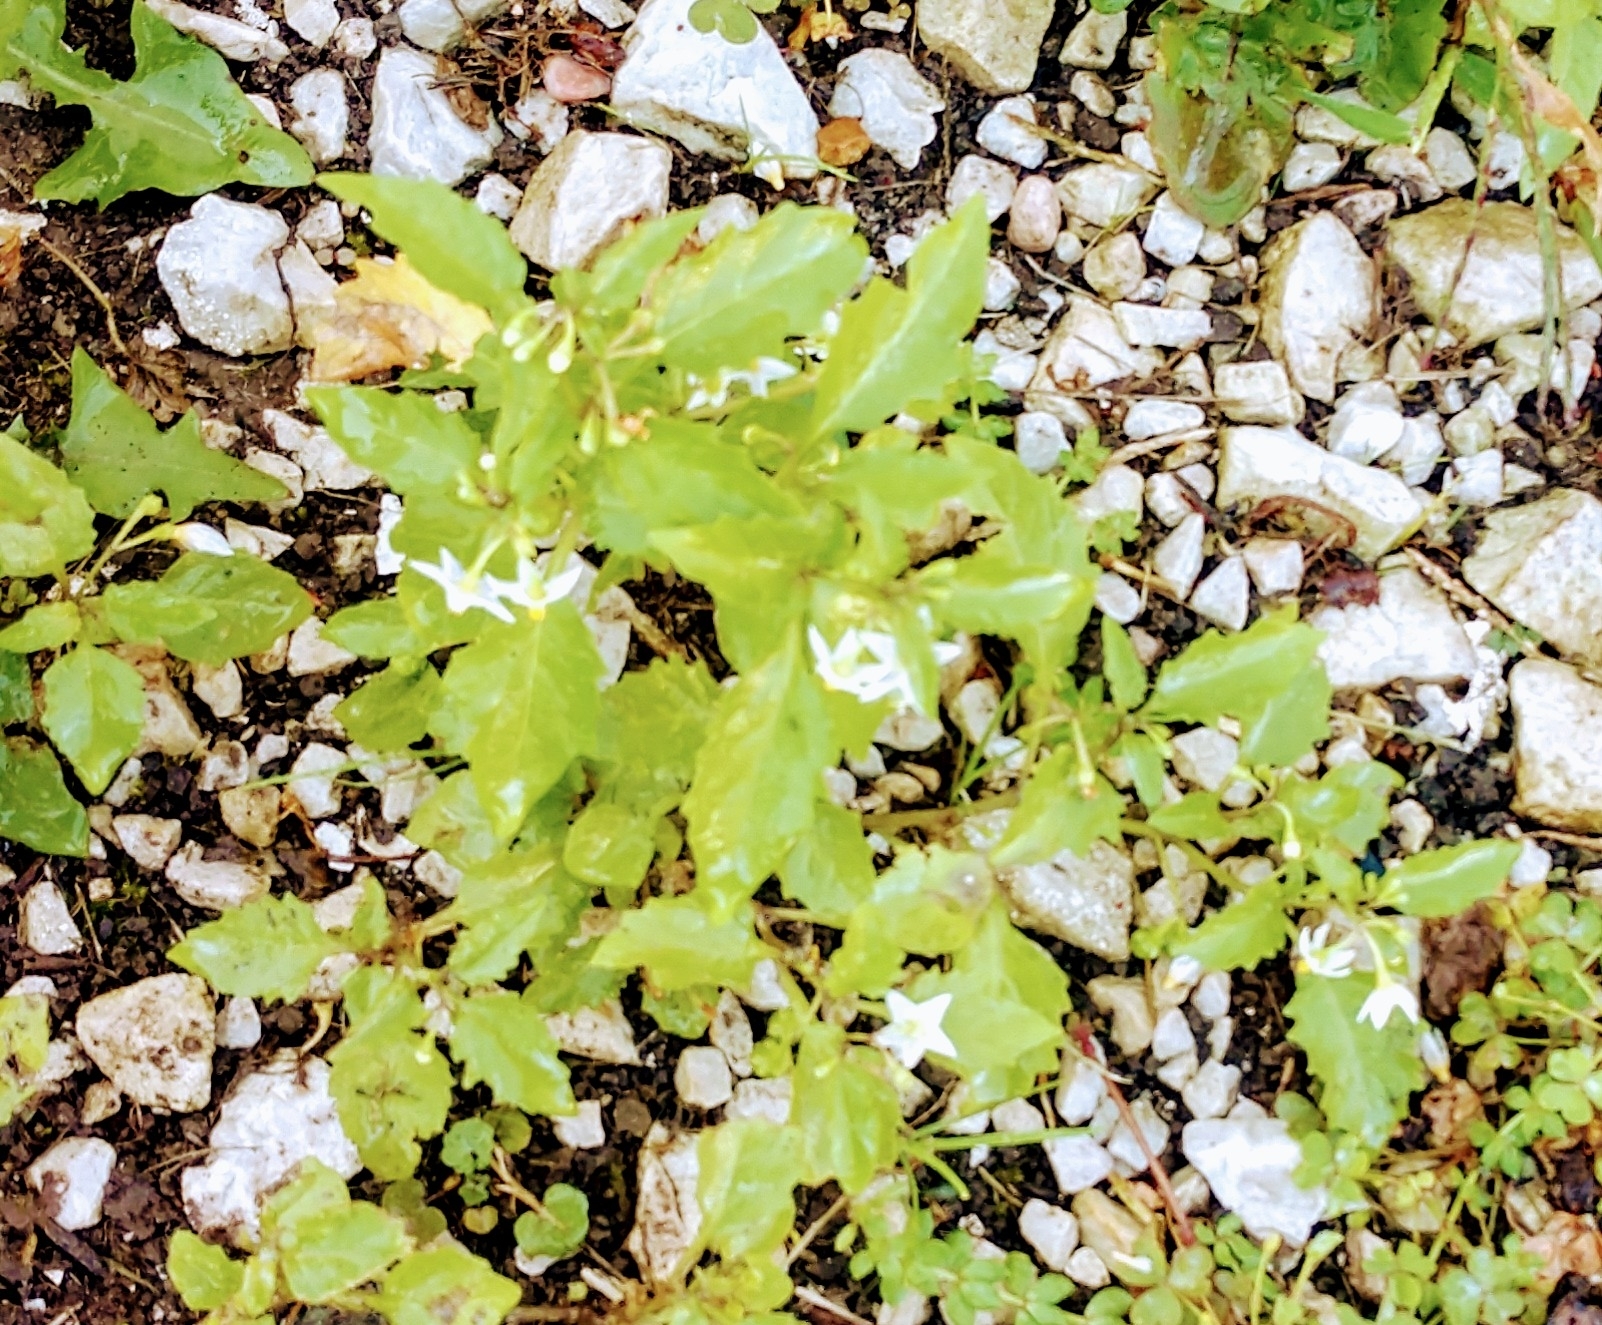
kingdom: Plantae
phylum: Tracheophyta
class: Magnoliopsida
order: Solanales
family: Solanaceae
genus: Solanum
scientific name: Solanum emulans
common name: Eastern black nightshade
